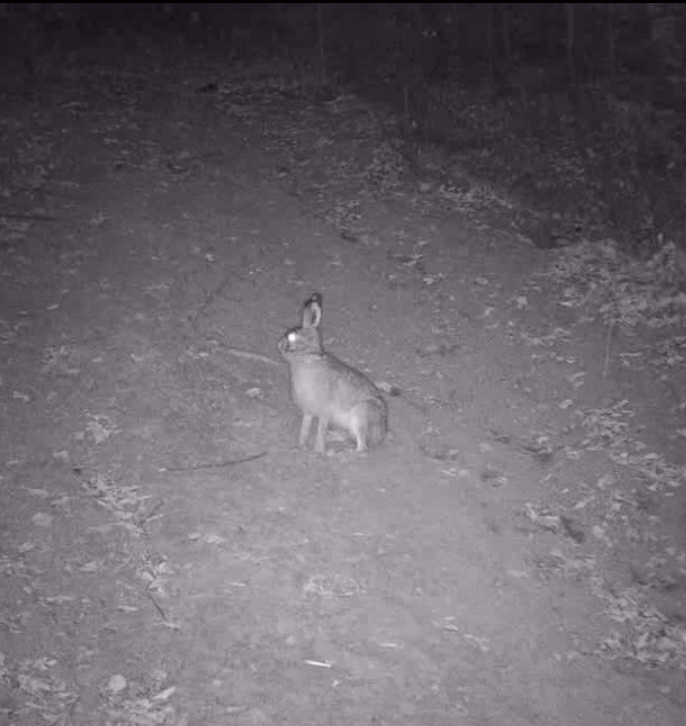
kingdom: Animalia
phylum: Chordata
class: Mammalia
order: Lagomorpha
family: Leporidae
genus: Lepus
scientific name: Lepus europaeus
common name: European hare
